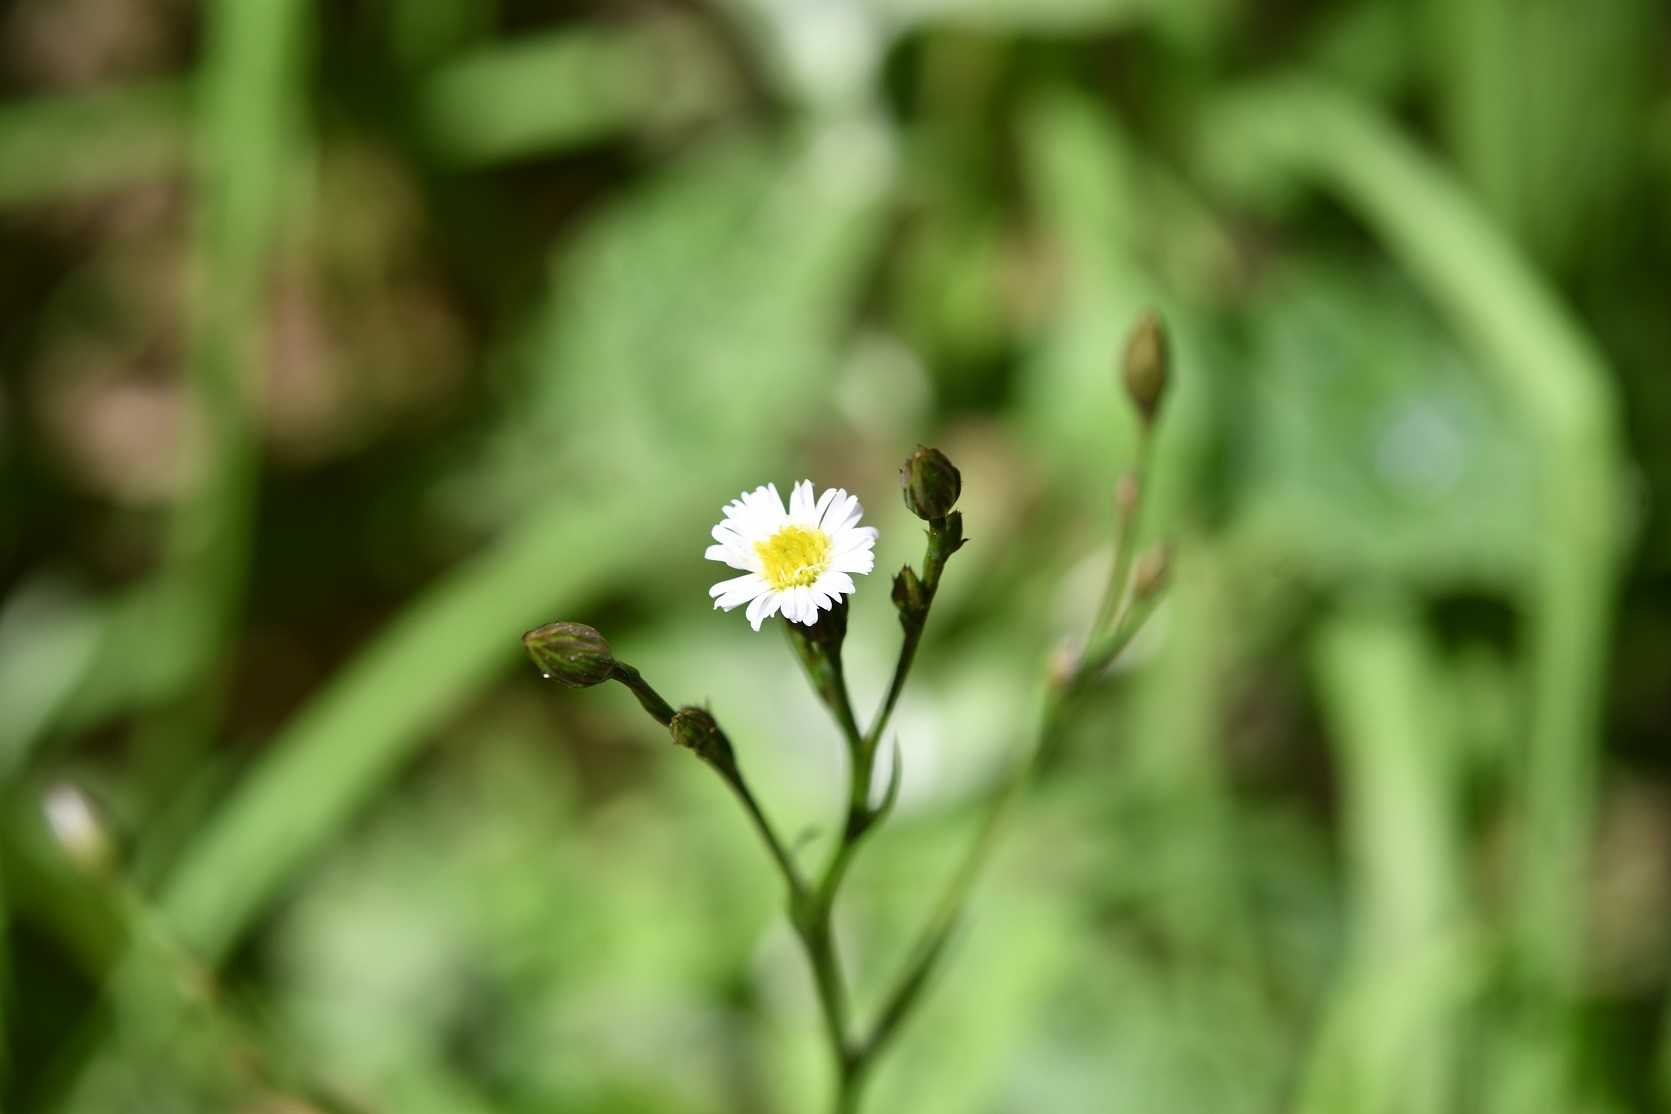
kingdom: Plantae
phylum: Tracheophyta
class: Magnoliopsida
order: Asterales
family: Asteraceae
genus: Symphyotrichum
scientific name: Symphyotrichum subulatum
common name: Annual saltmarsh aster
